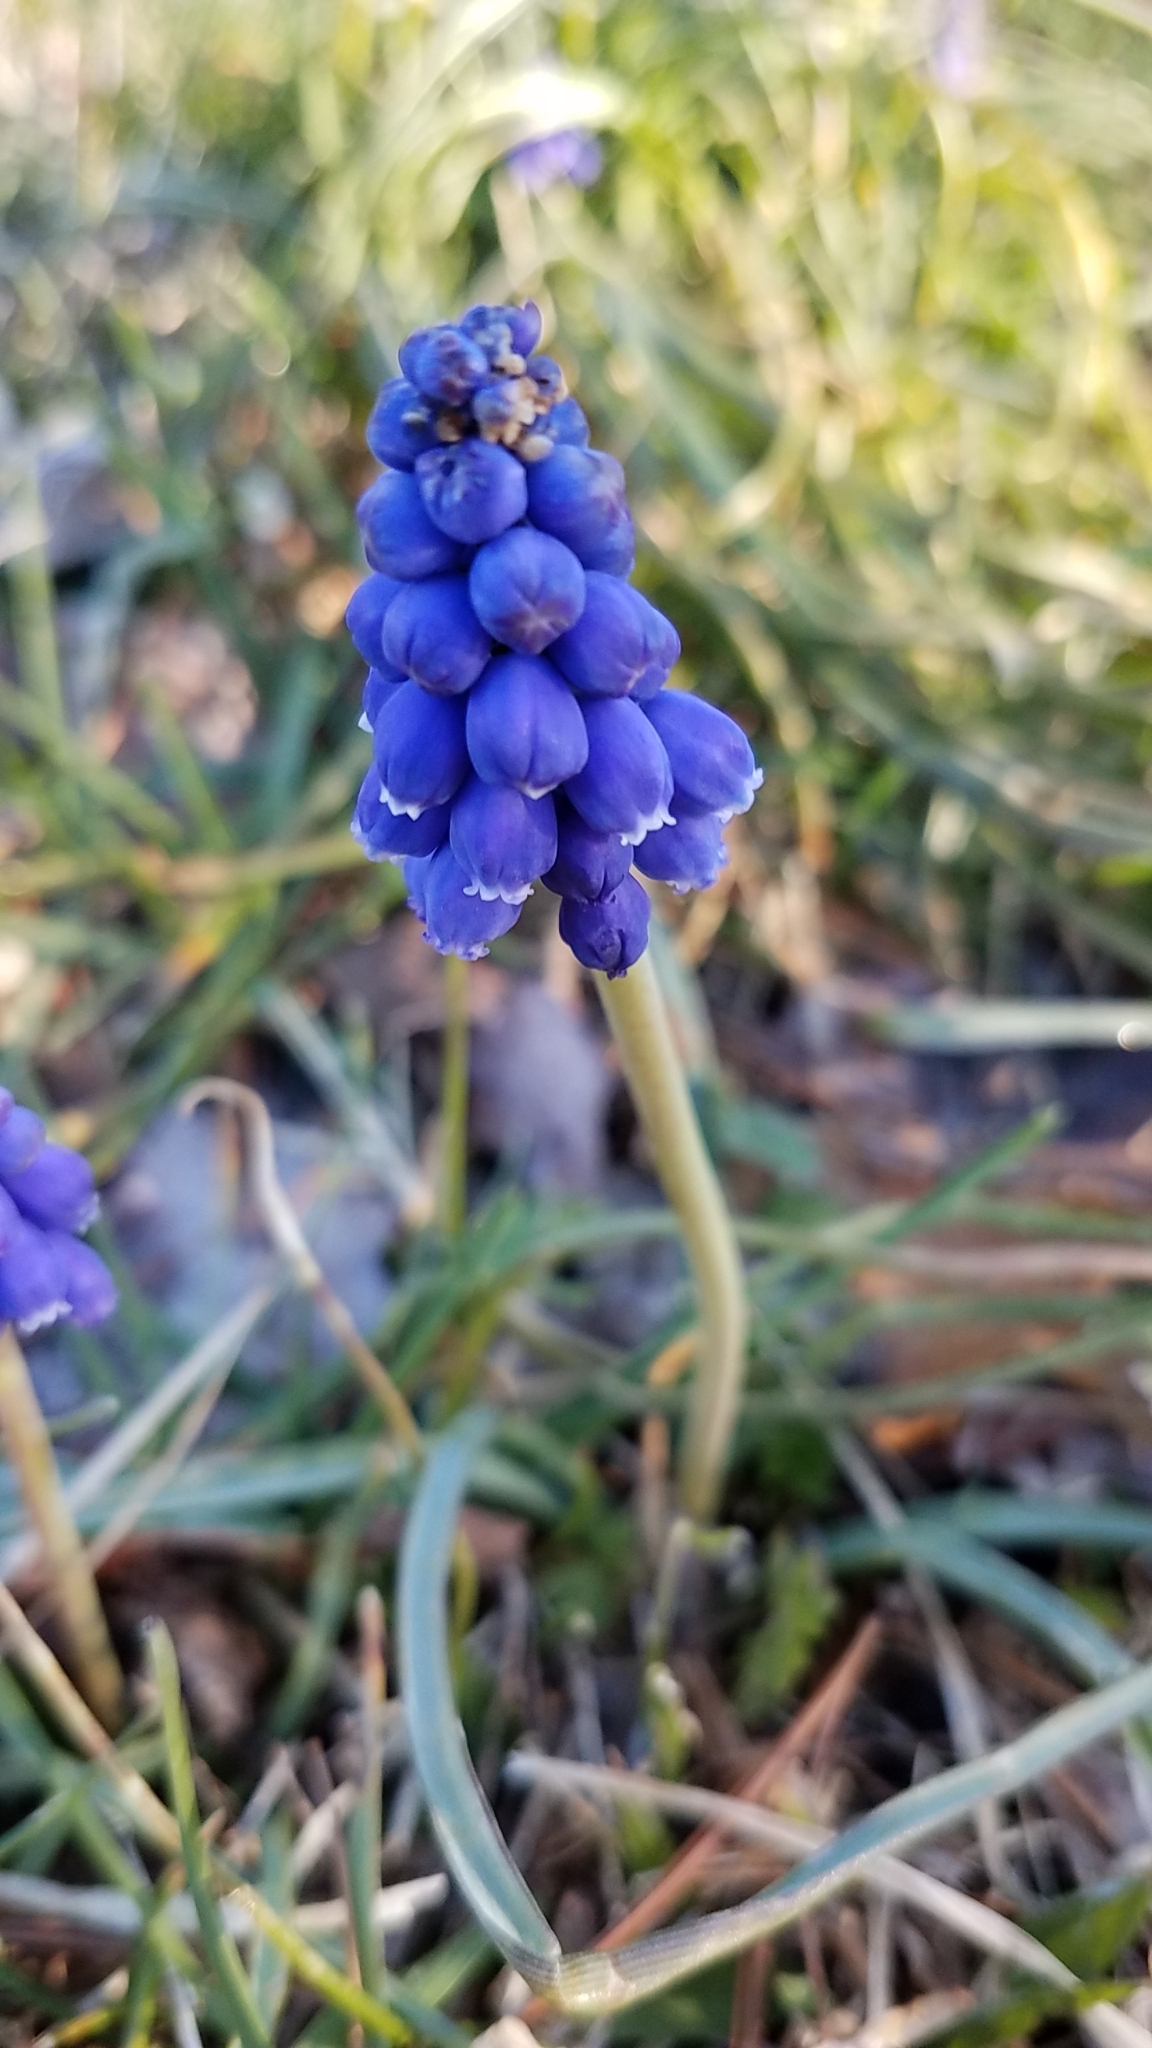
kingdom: Plantae
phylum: Tracheophyta
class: Liliopsida
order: Asparagales
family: Asparagaceae
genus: Muscari
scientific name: Muscari botryoides
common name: Compact grape-hyacinth
